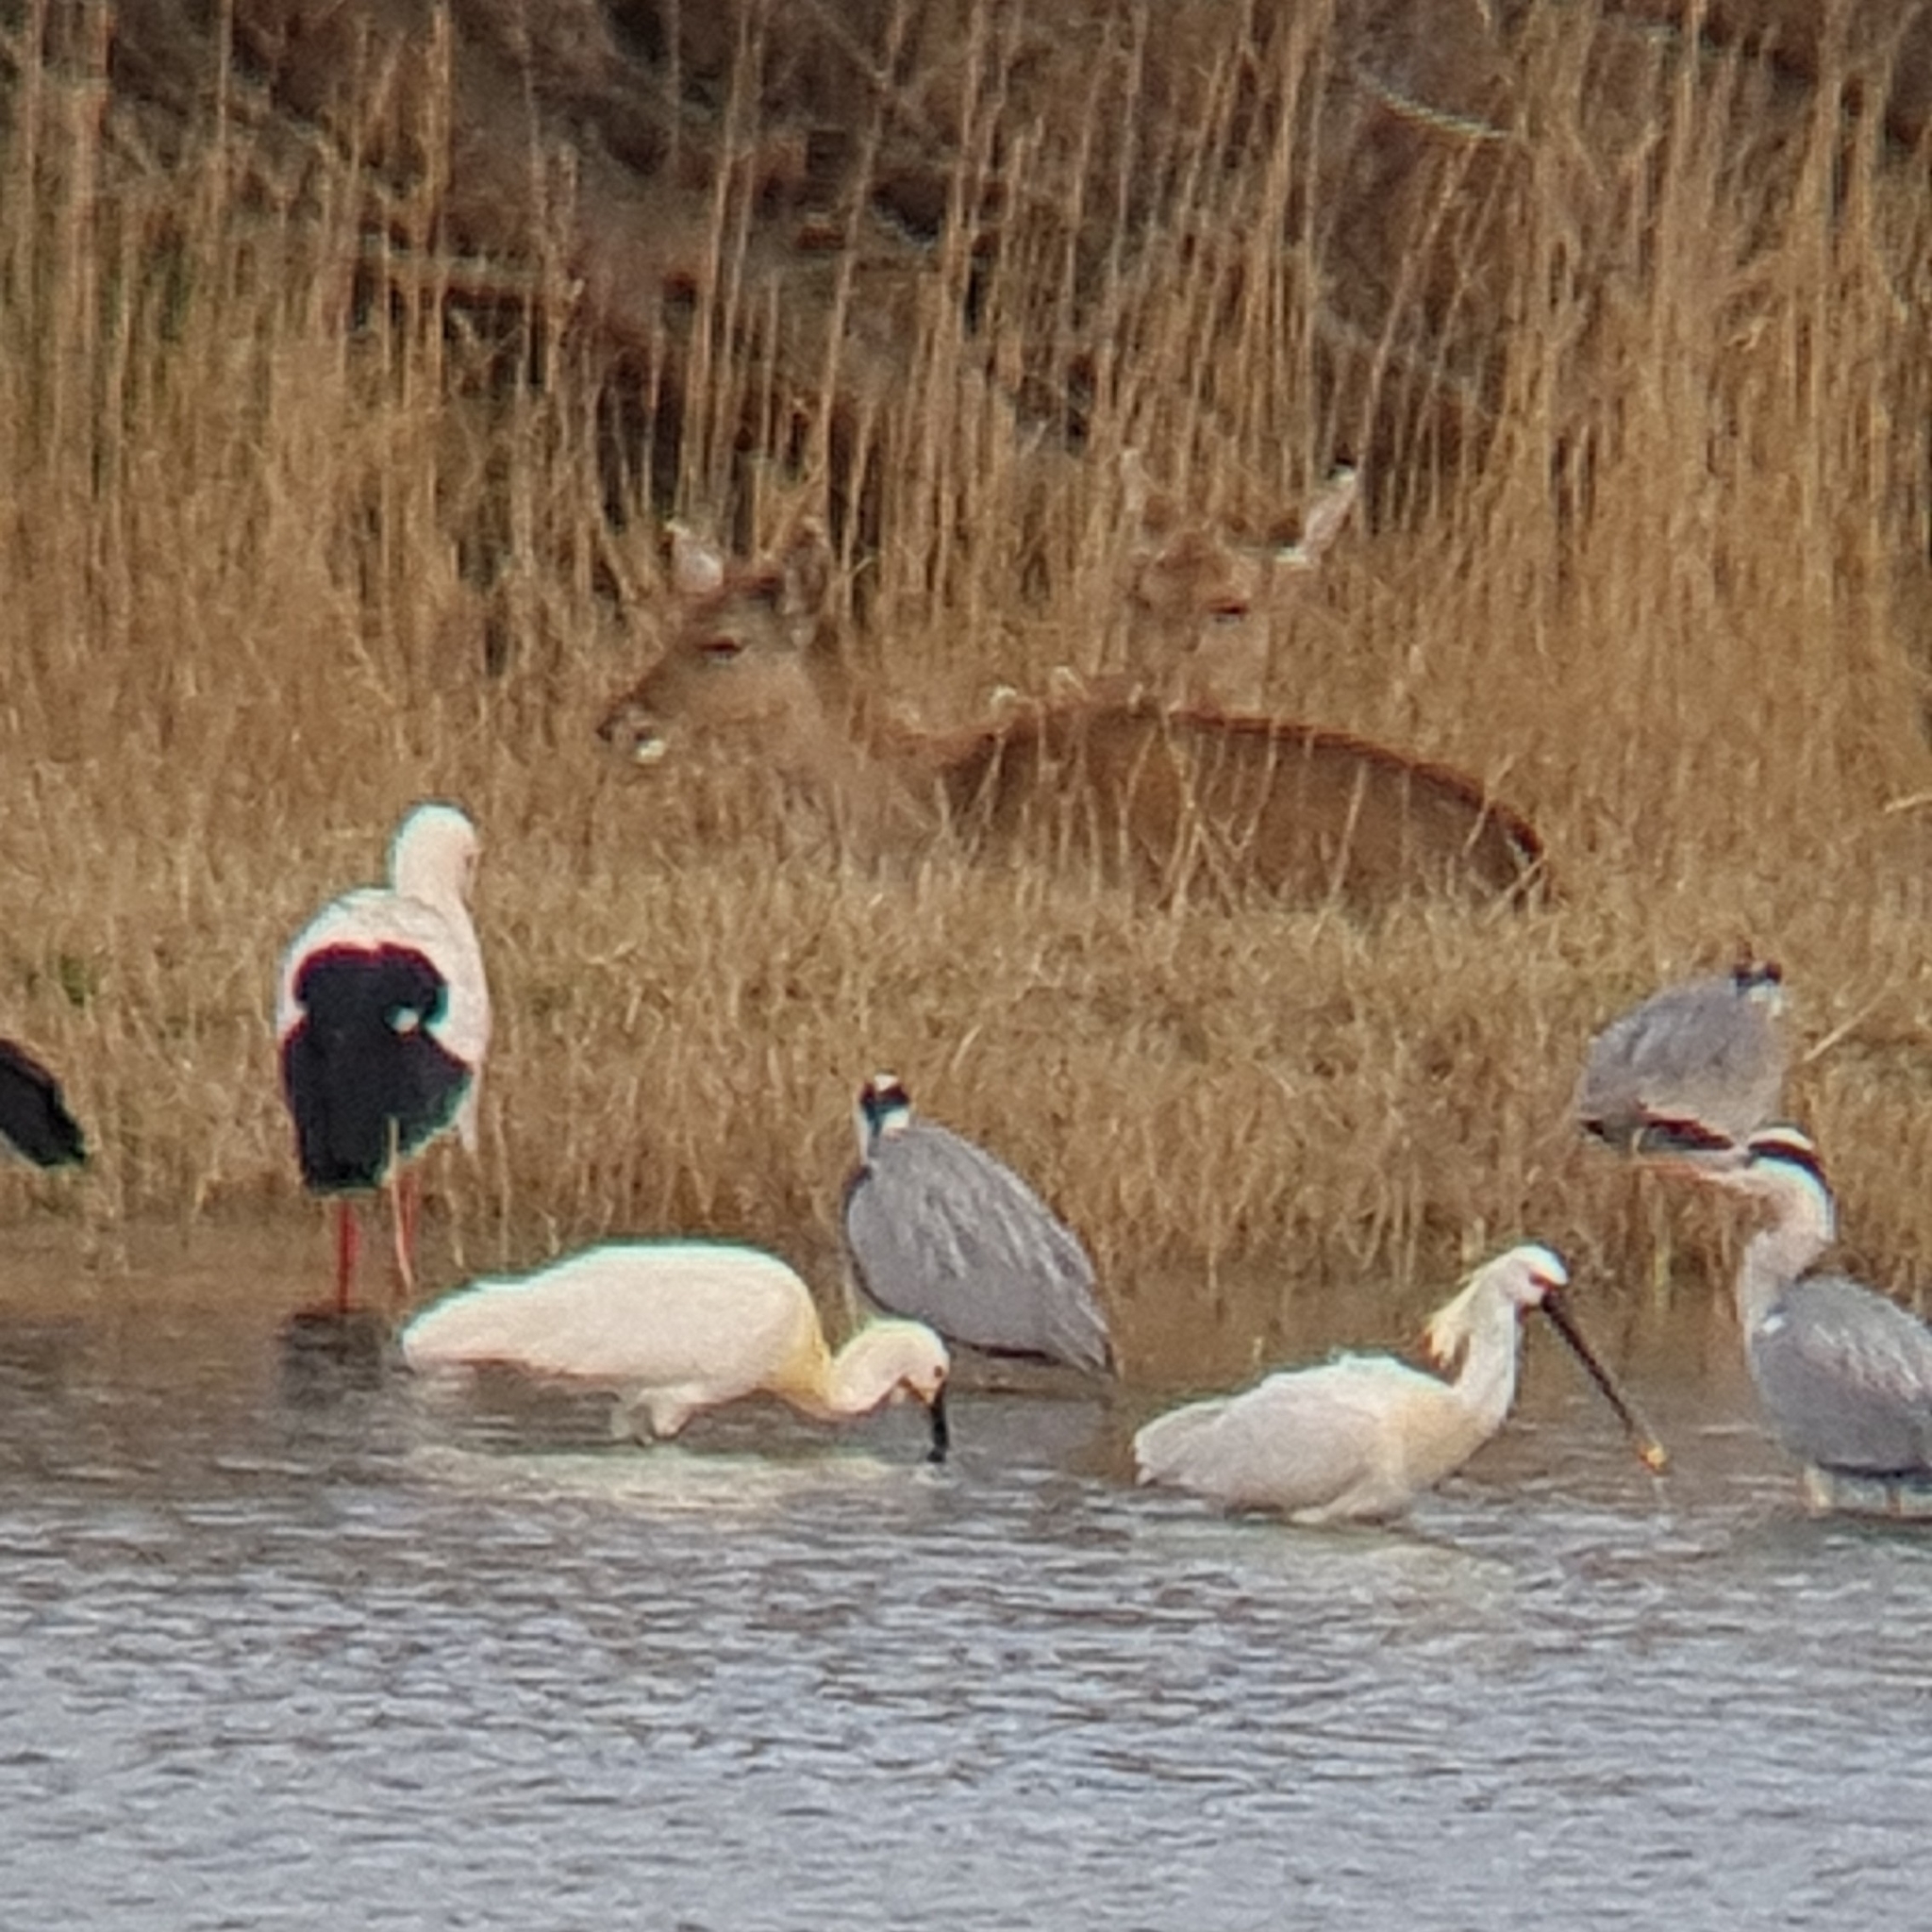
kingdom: Animalia
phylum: Chordata
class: Aves
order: Pelecaniformes
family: Threskiornithidae
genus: Platalea
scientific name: Platalea leucorodia
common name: Eurasian spoonbill
